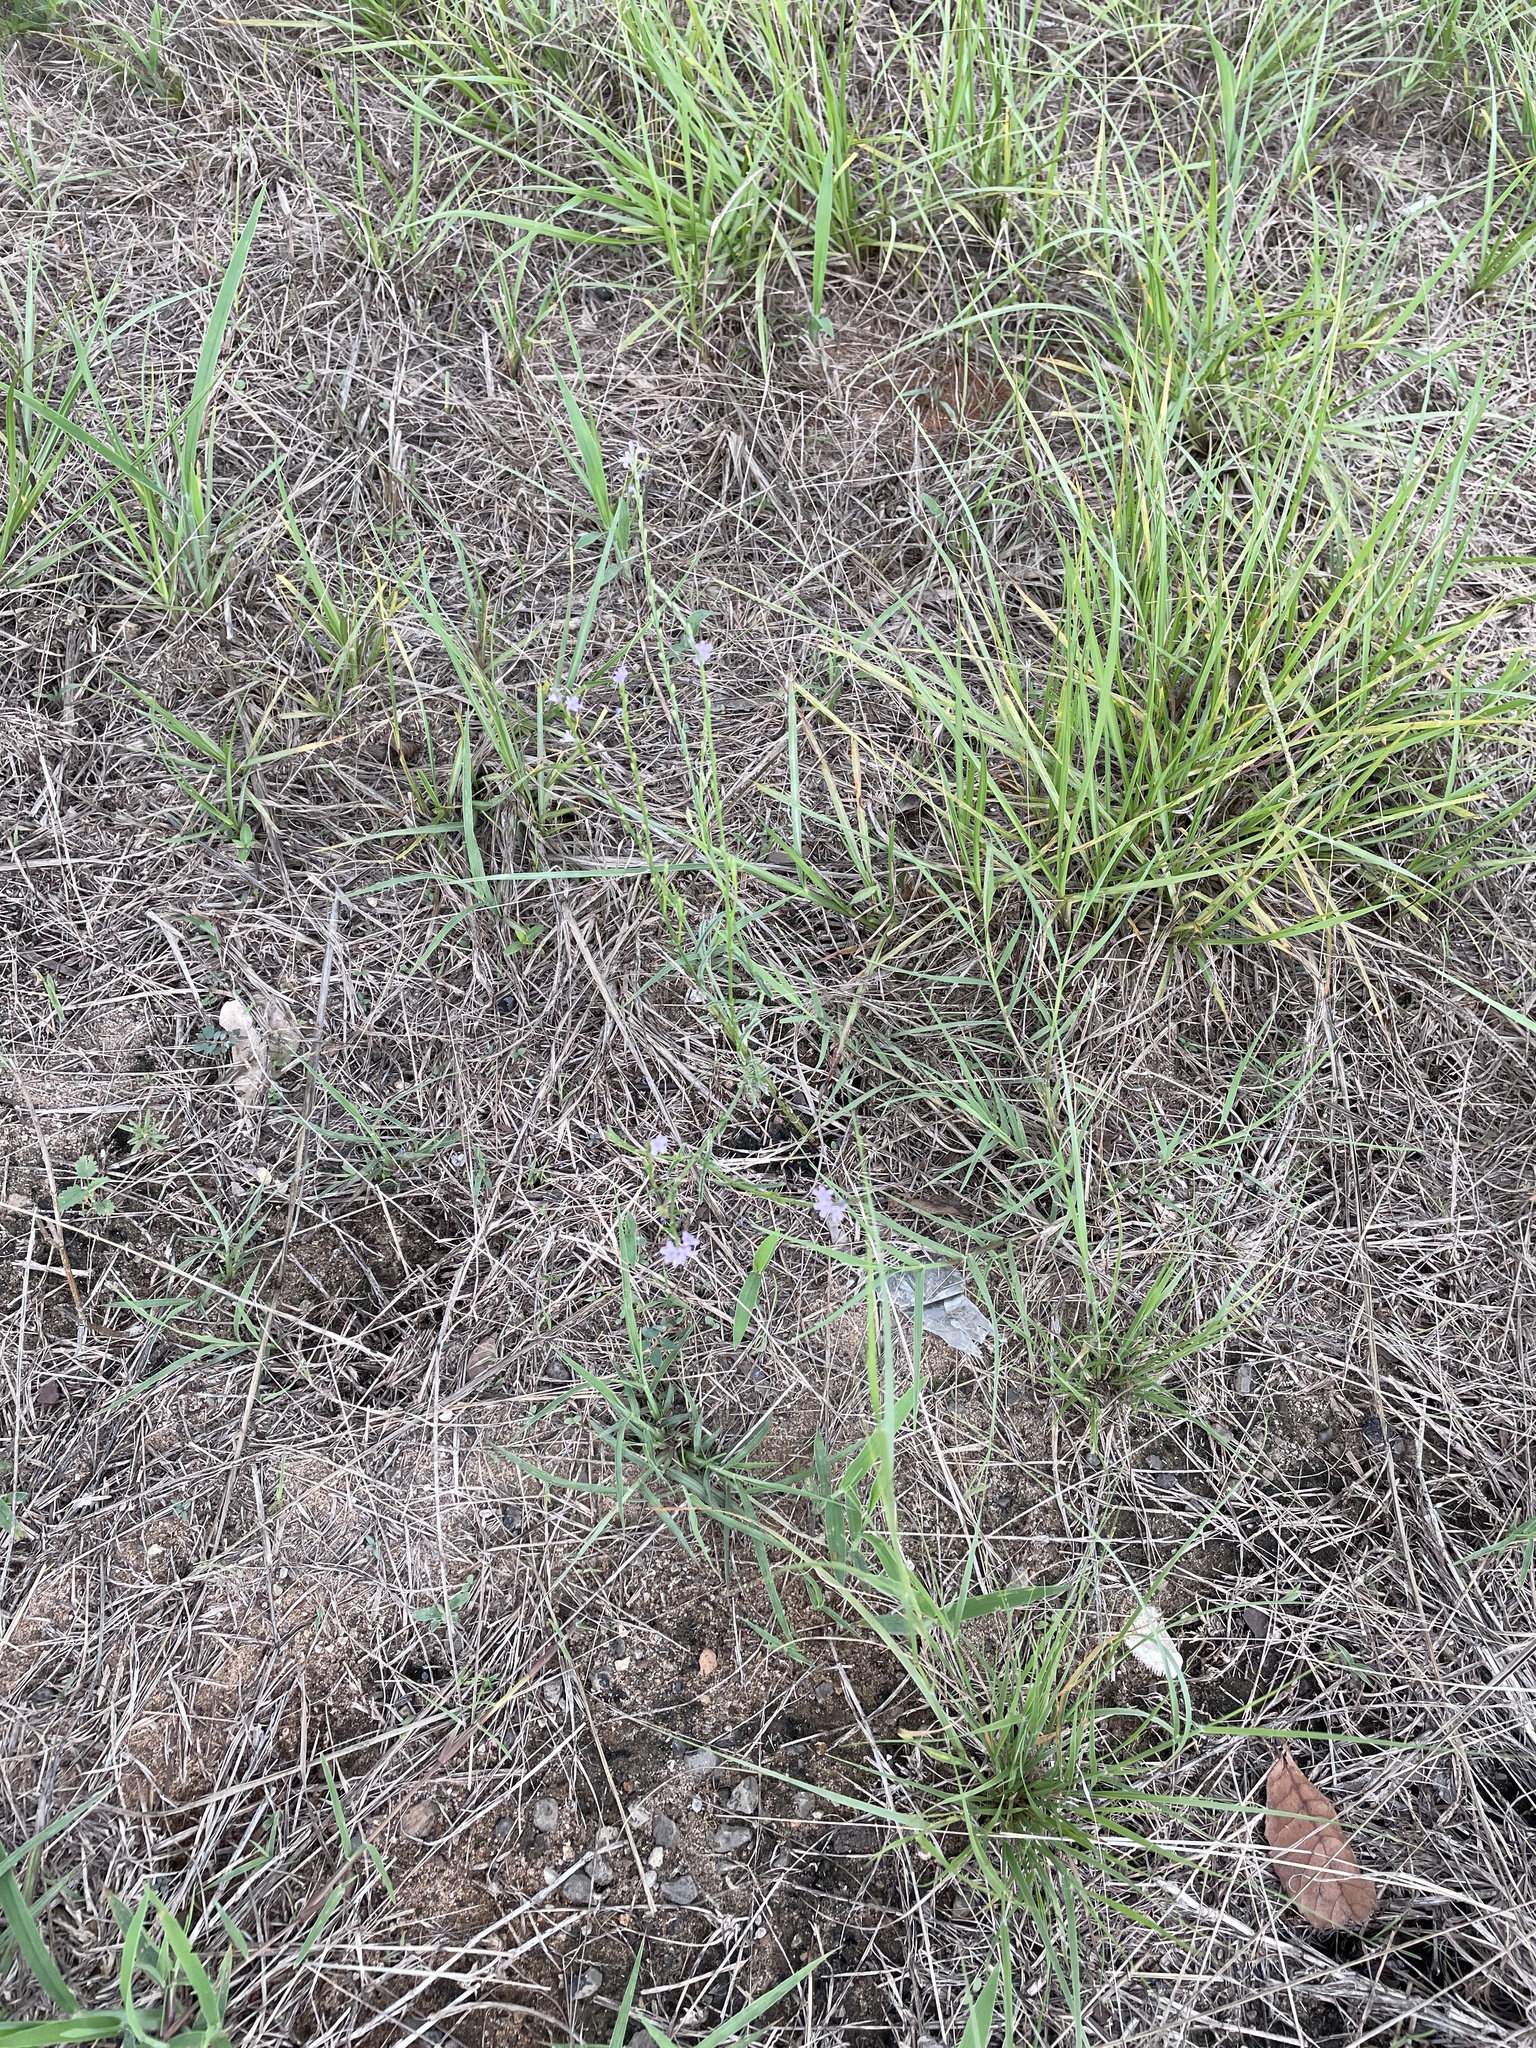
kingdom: Plantae
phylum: Tracheophyta
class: Magnoliopsida
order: Lamiales
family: Verbenaceae
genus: Verbena
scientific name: Verbena halei
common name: Texas vervain
